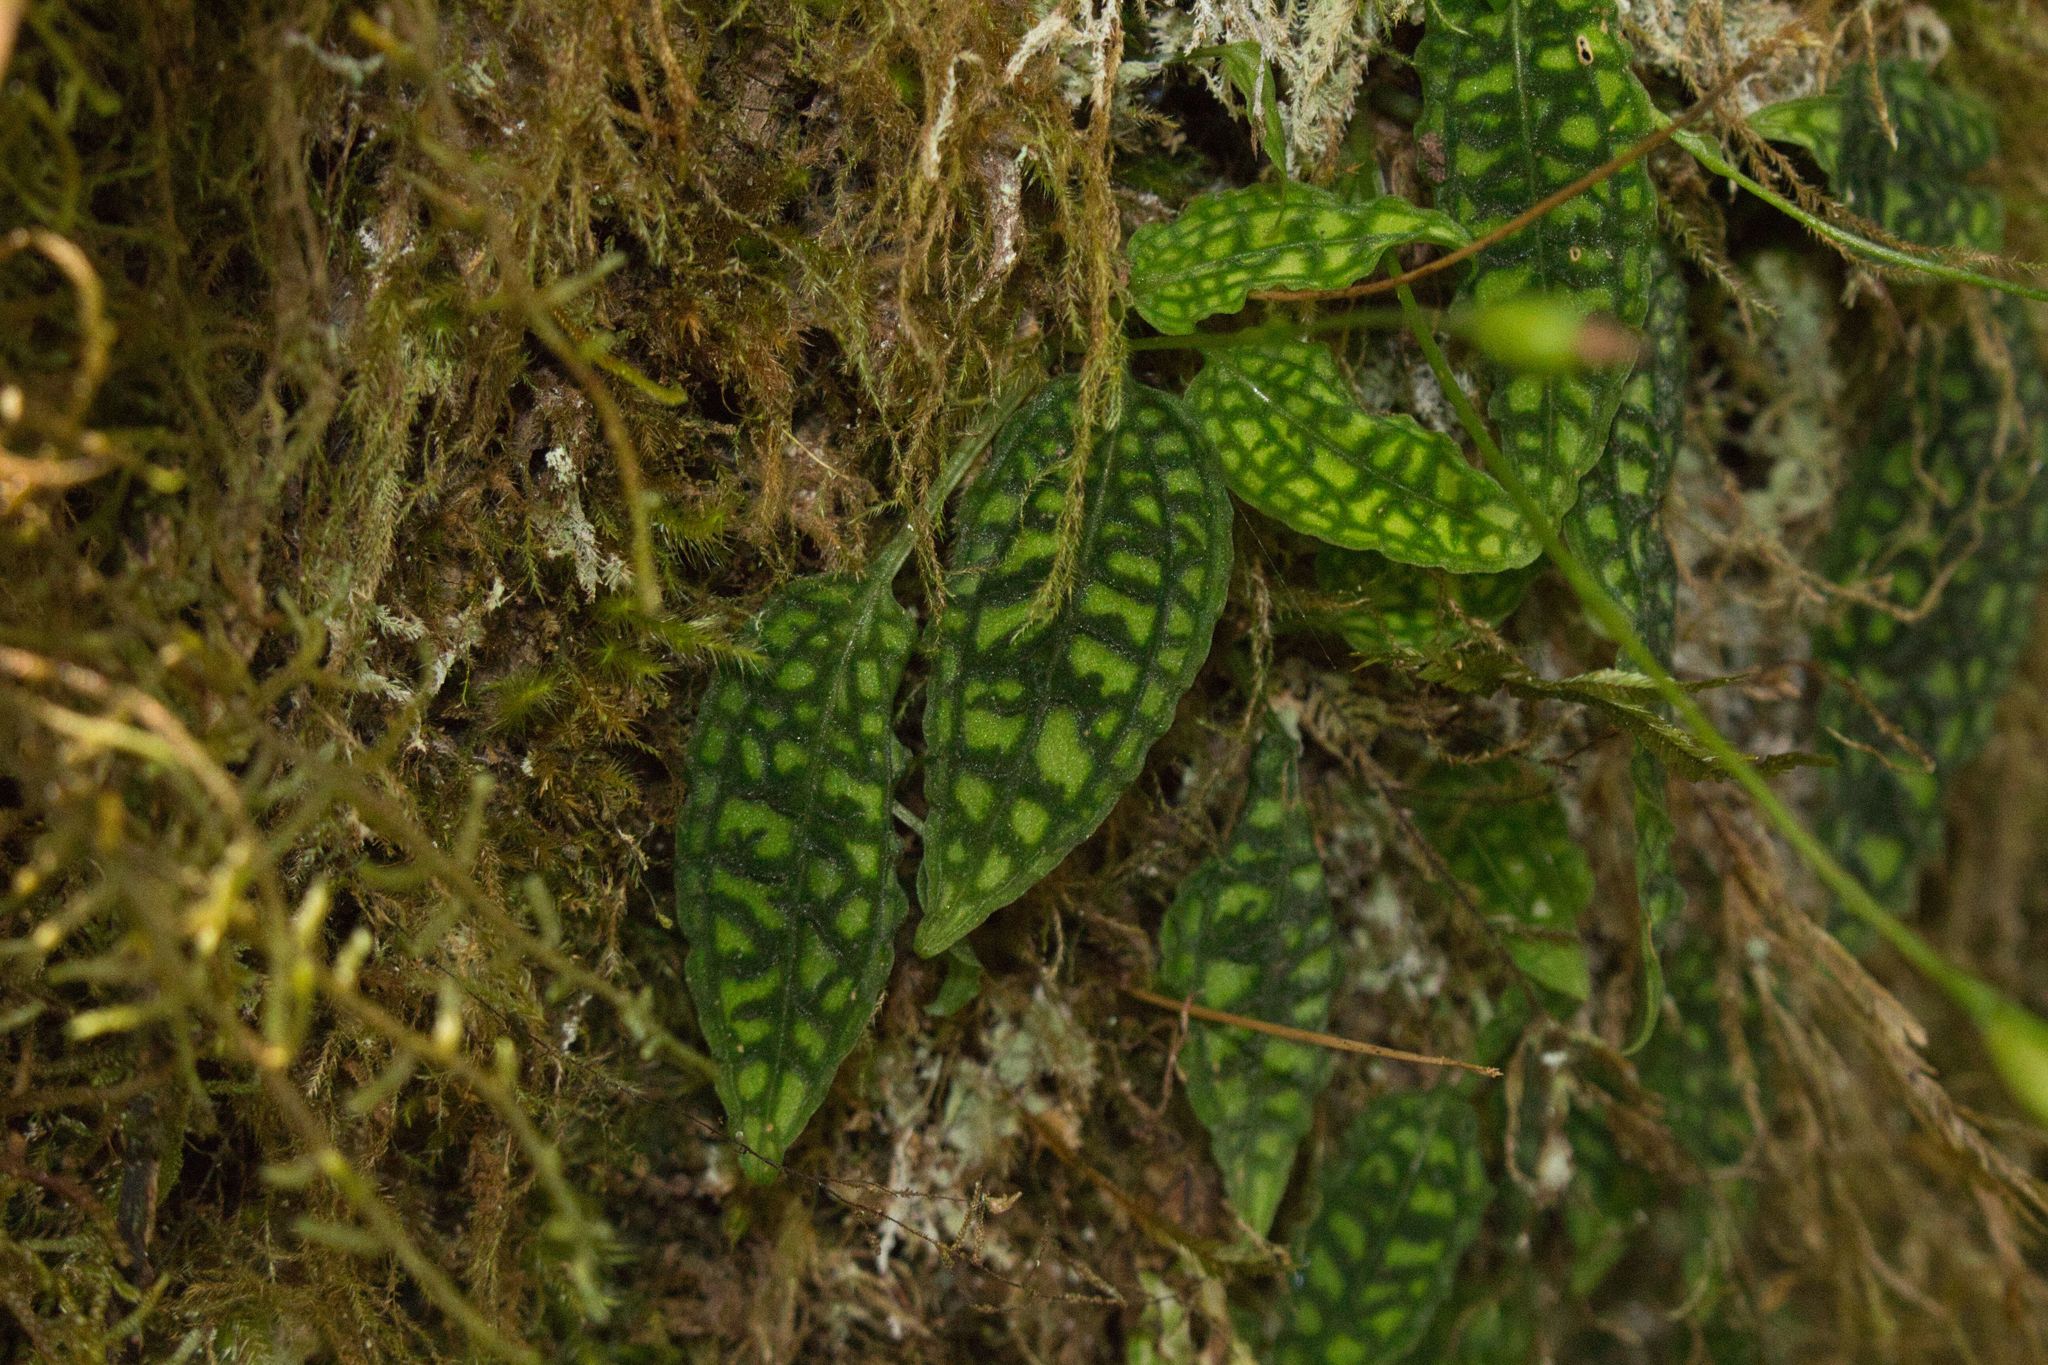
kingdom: Plantae
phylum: Tracheophyta
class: Liliopsida
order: Asparagales
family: Orchidaceae
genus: Cranichis
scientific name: Cranichis reticulata
